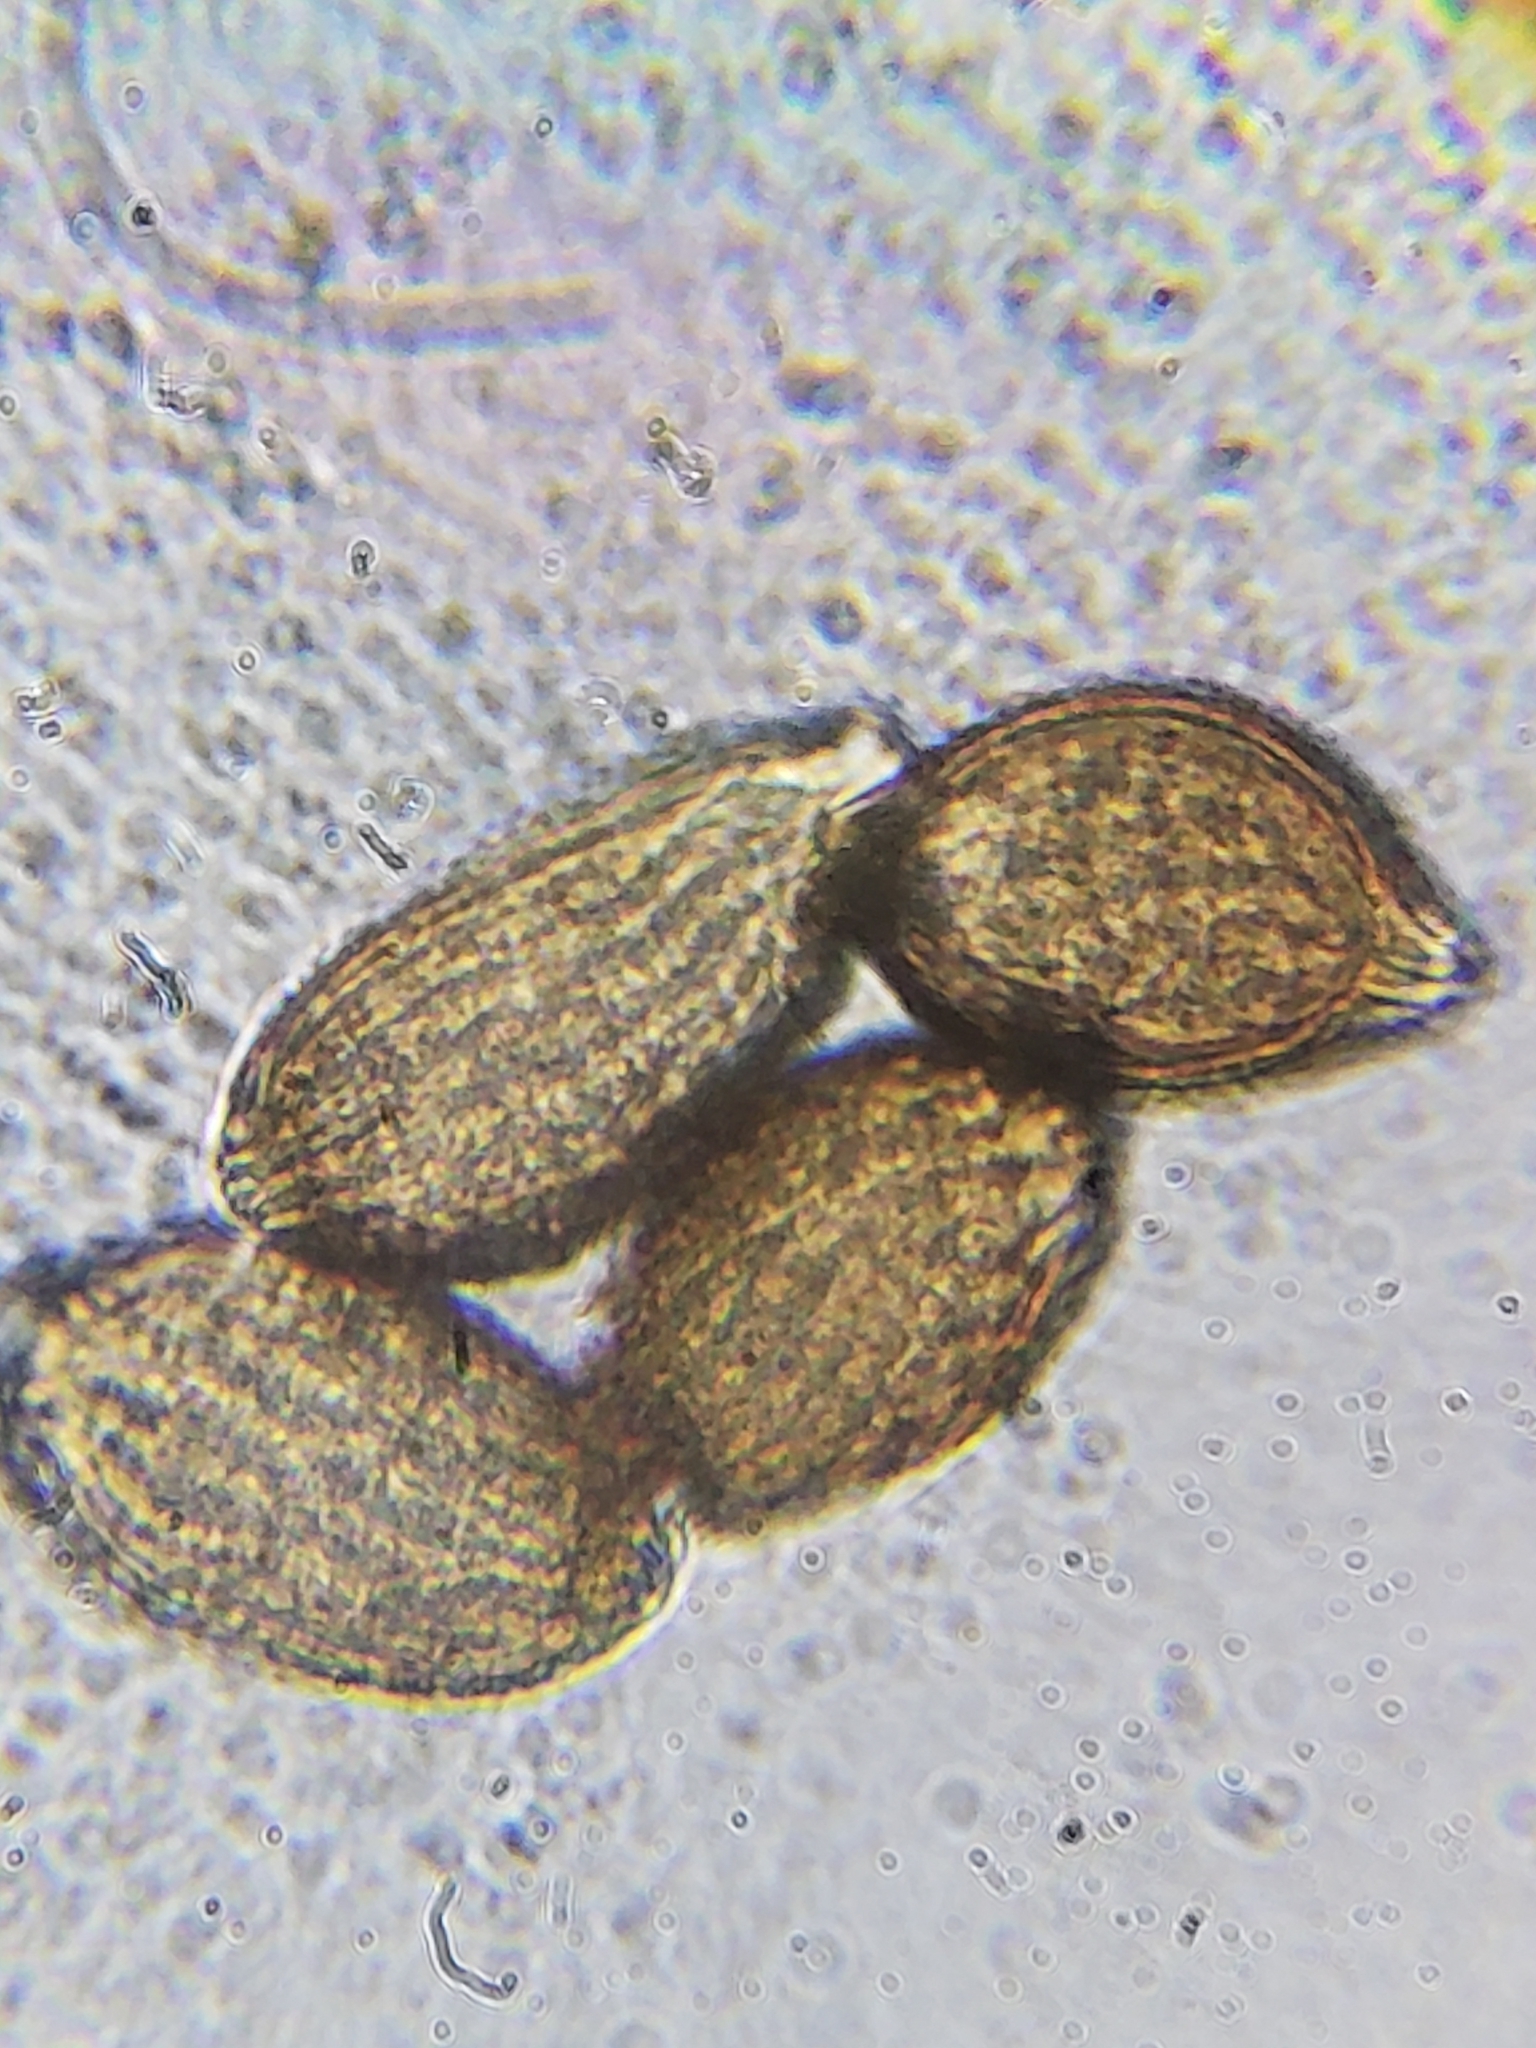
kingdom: Fungi
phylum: Basidiomycota
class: Pucciniomycetes
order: Pucciniales
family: Pileolariaceae
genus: Pileolaria
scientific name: Pileolaria brevipes
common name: Poison ivy rust
